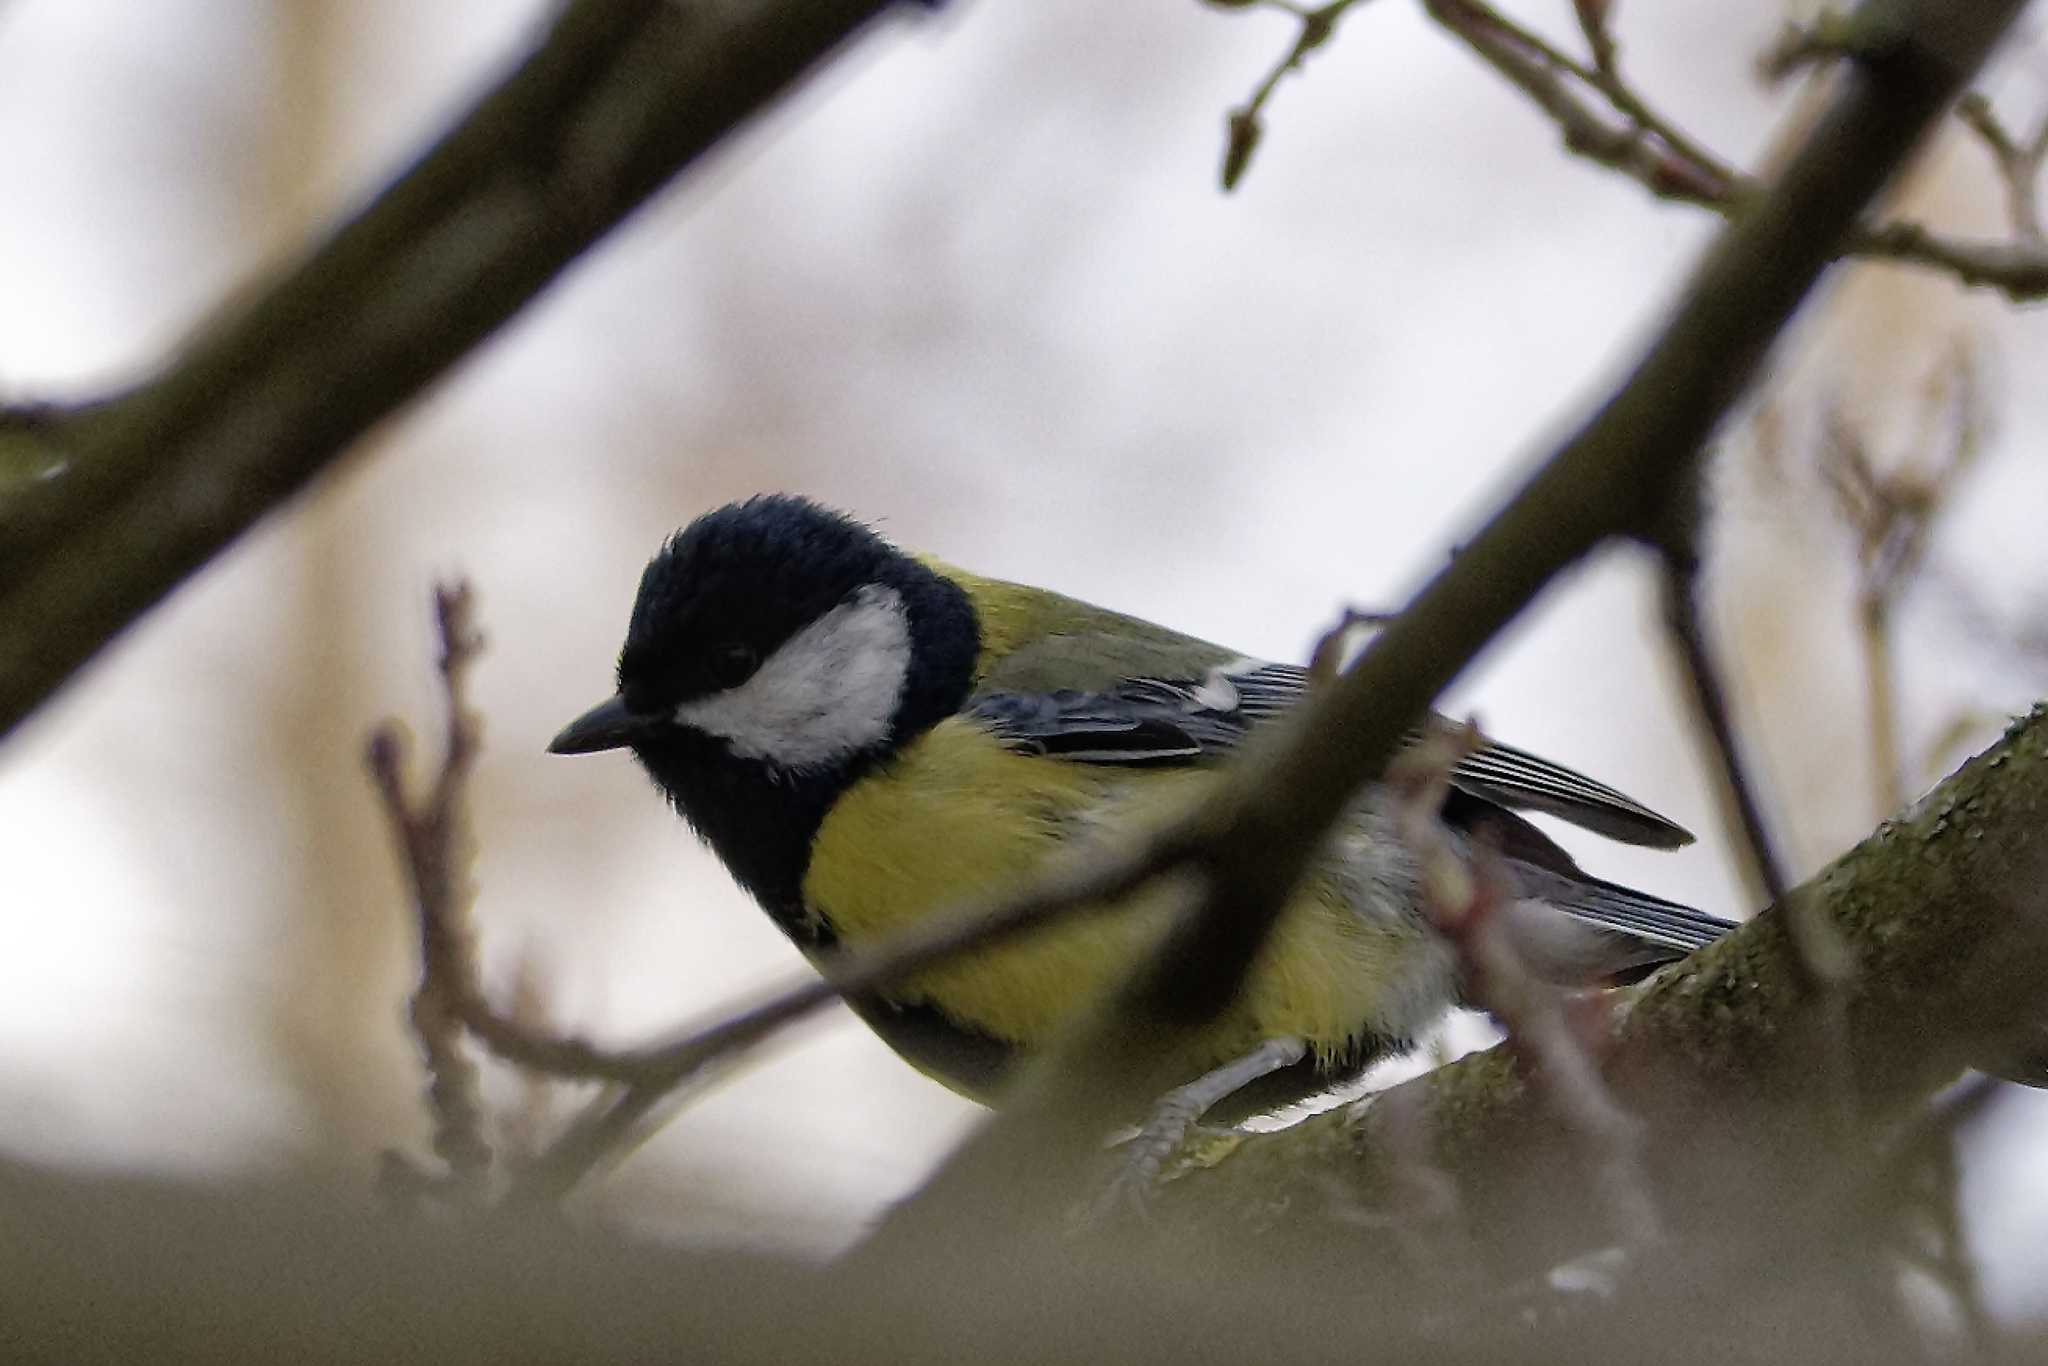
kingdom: Animalia
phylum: Chordata
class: Aves
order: Passeriformes
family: Paridae
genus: Parus
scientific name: Parus major
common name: Great tit
